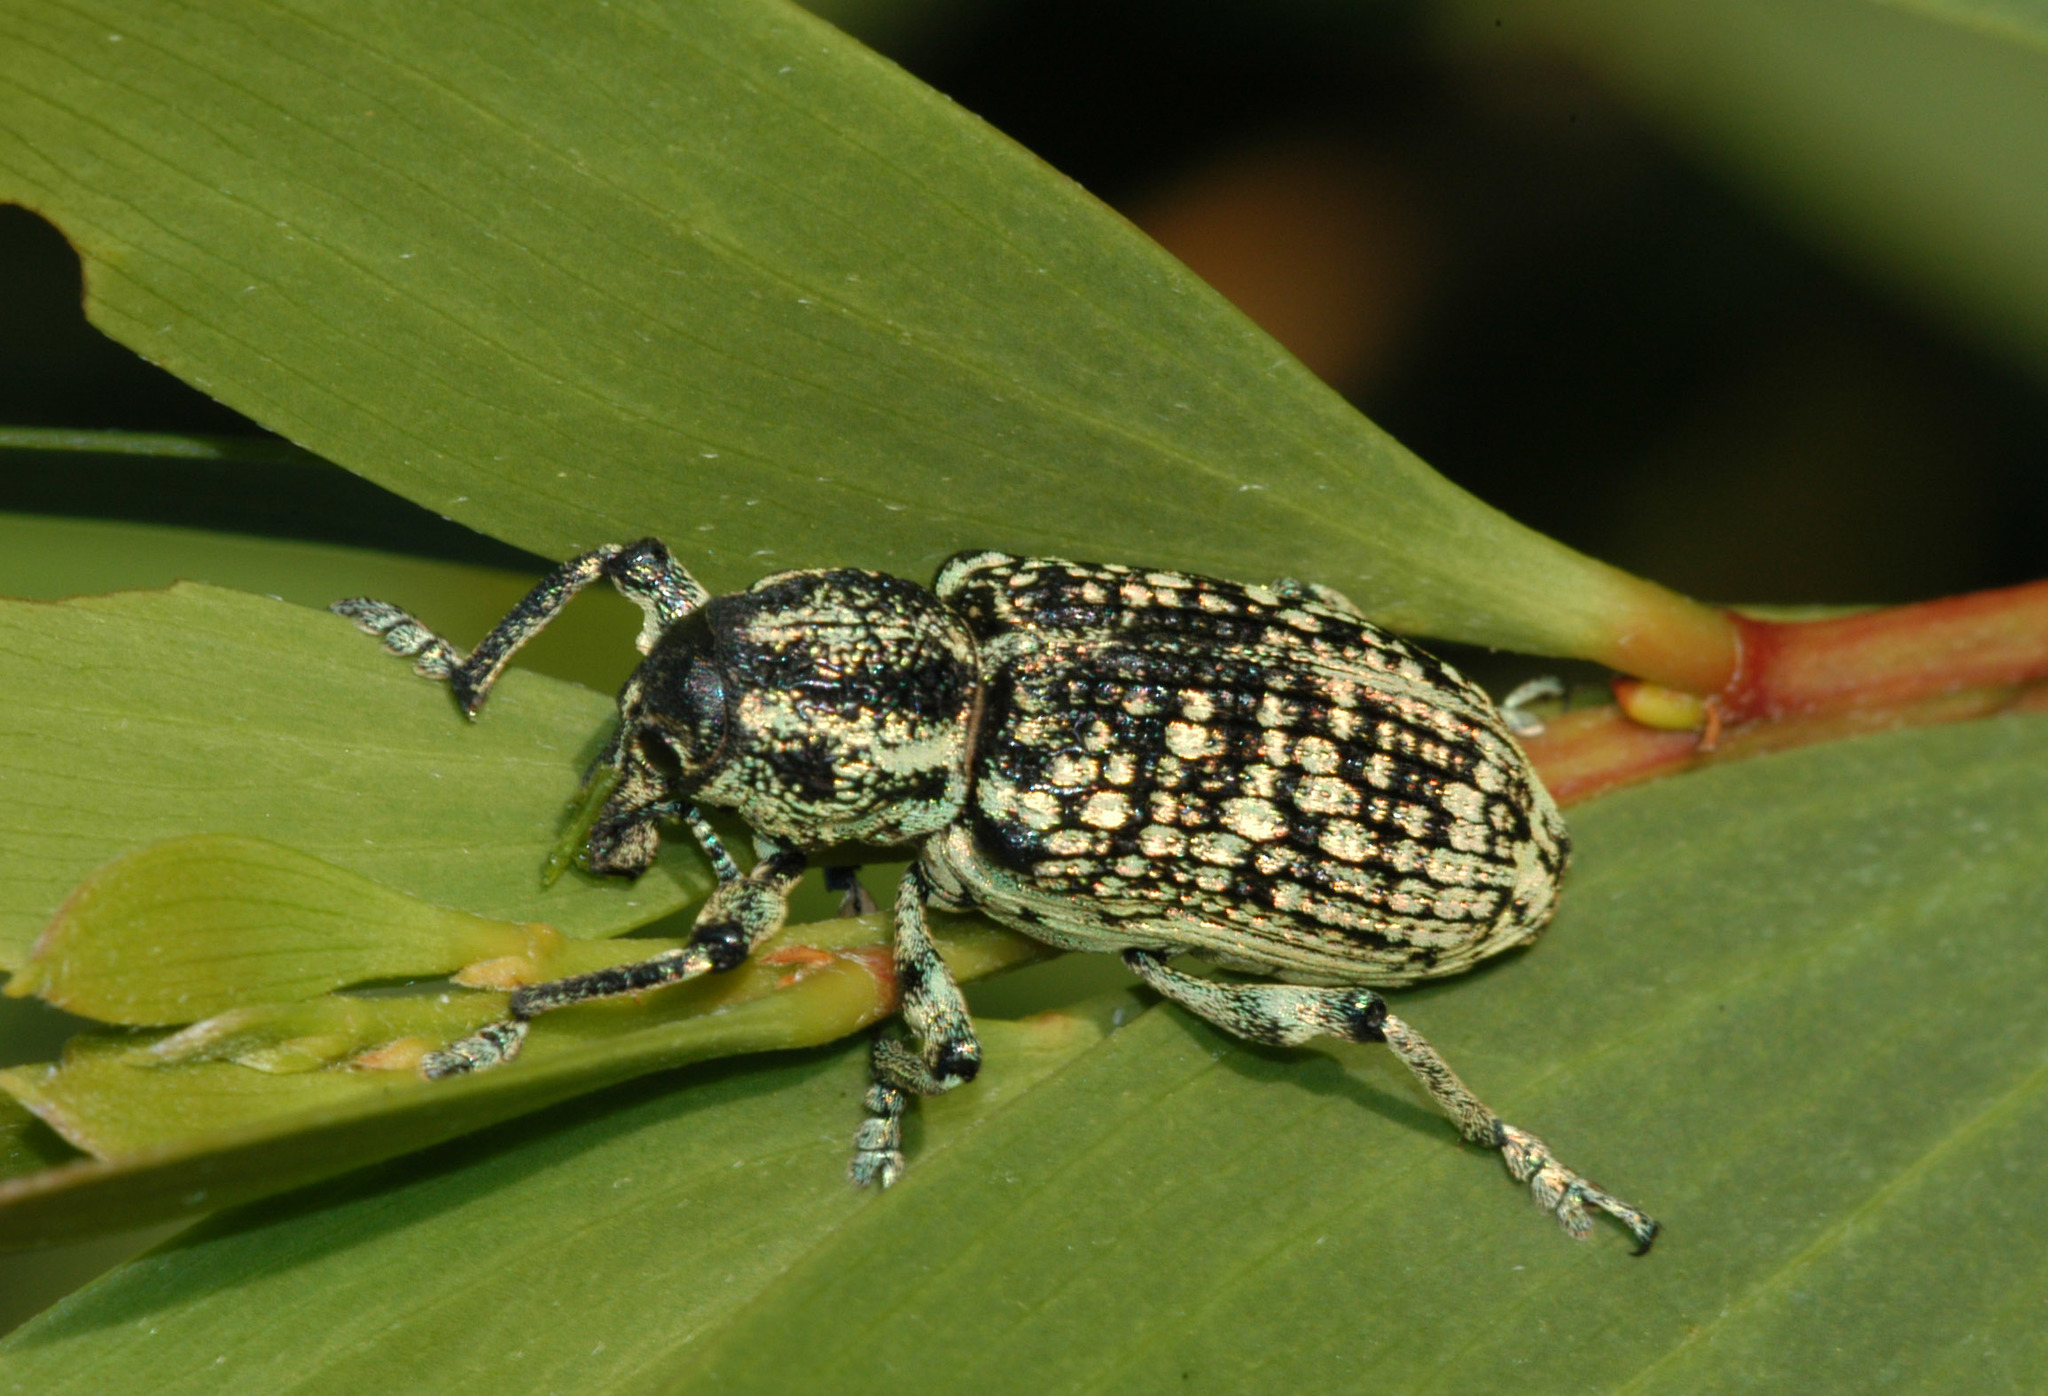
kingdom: Animalia
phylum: Arthropoda
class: Insecta
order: Coleoptera
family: Curculionidae
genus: Chrysolopus
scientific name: Chrysolopus spectabilis
